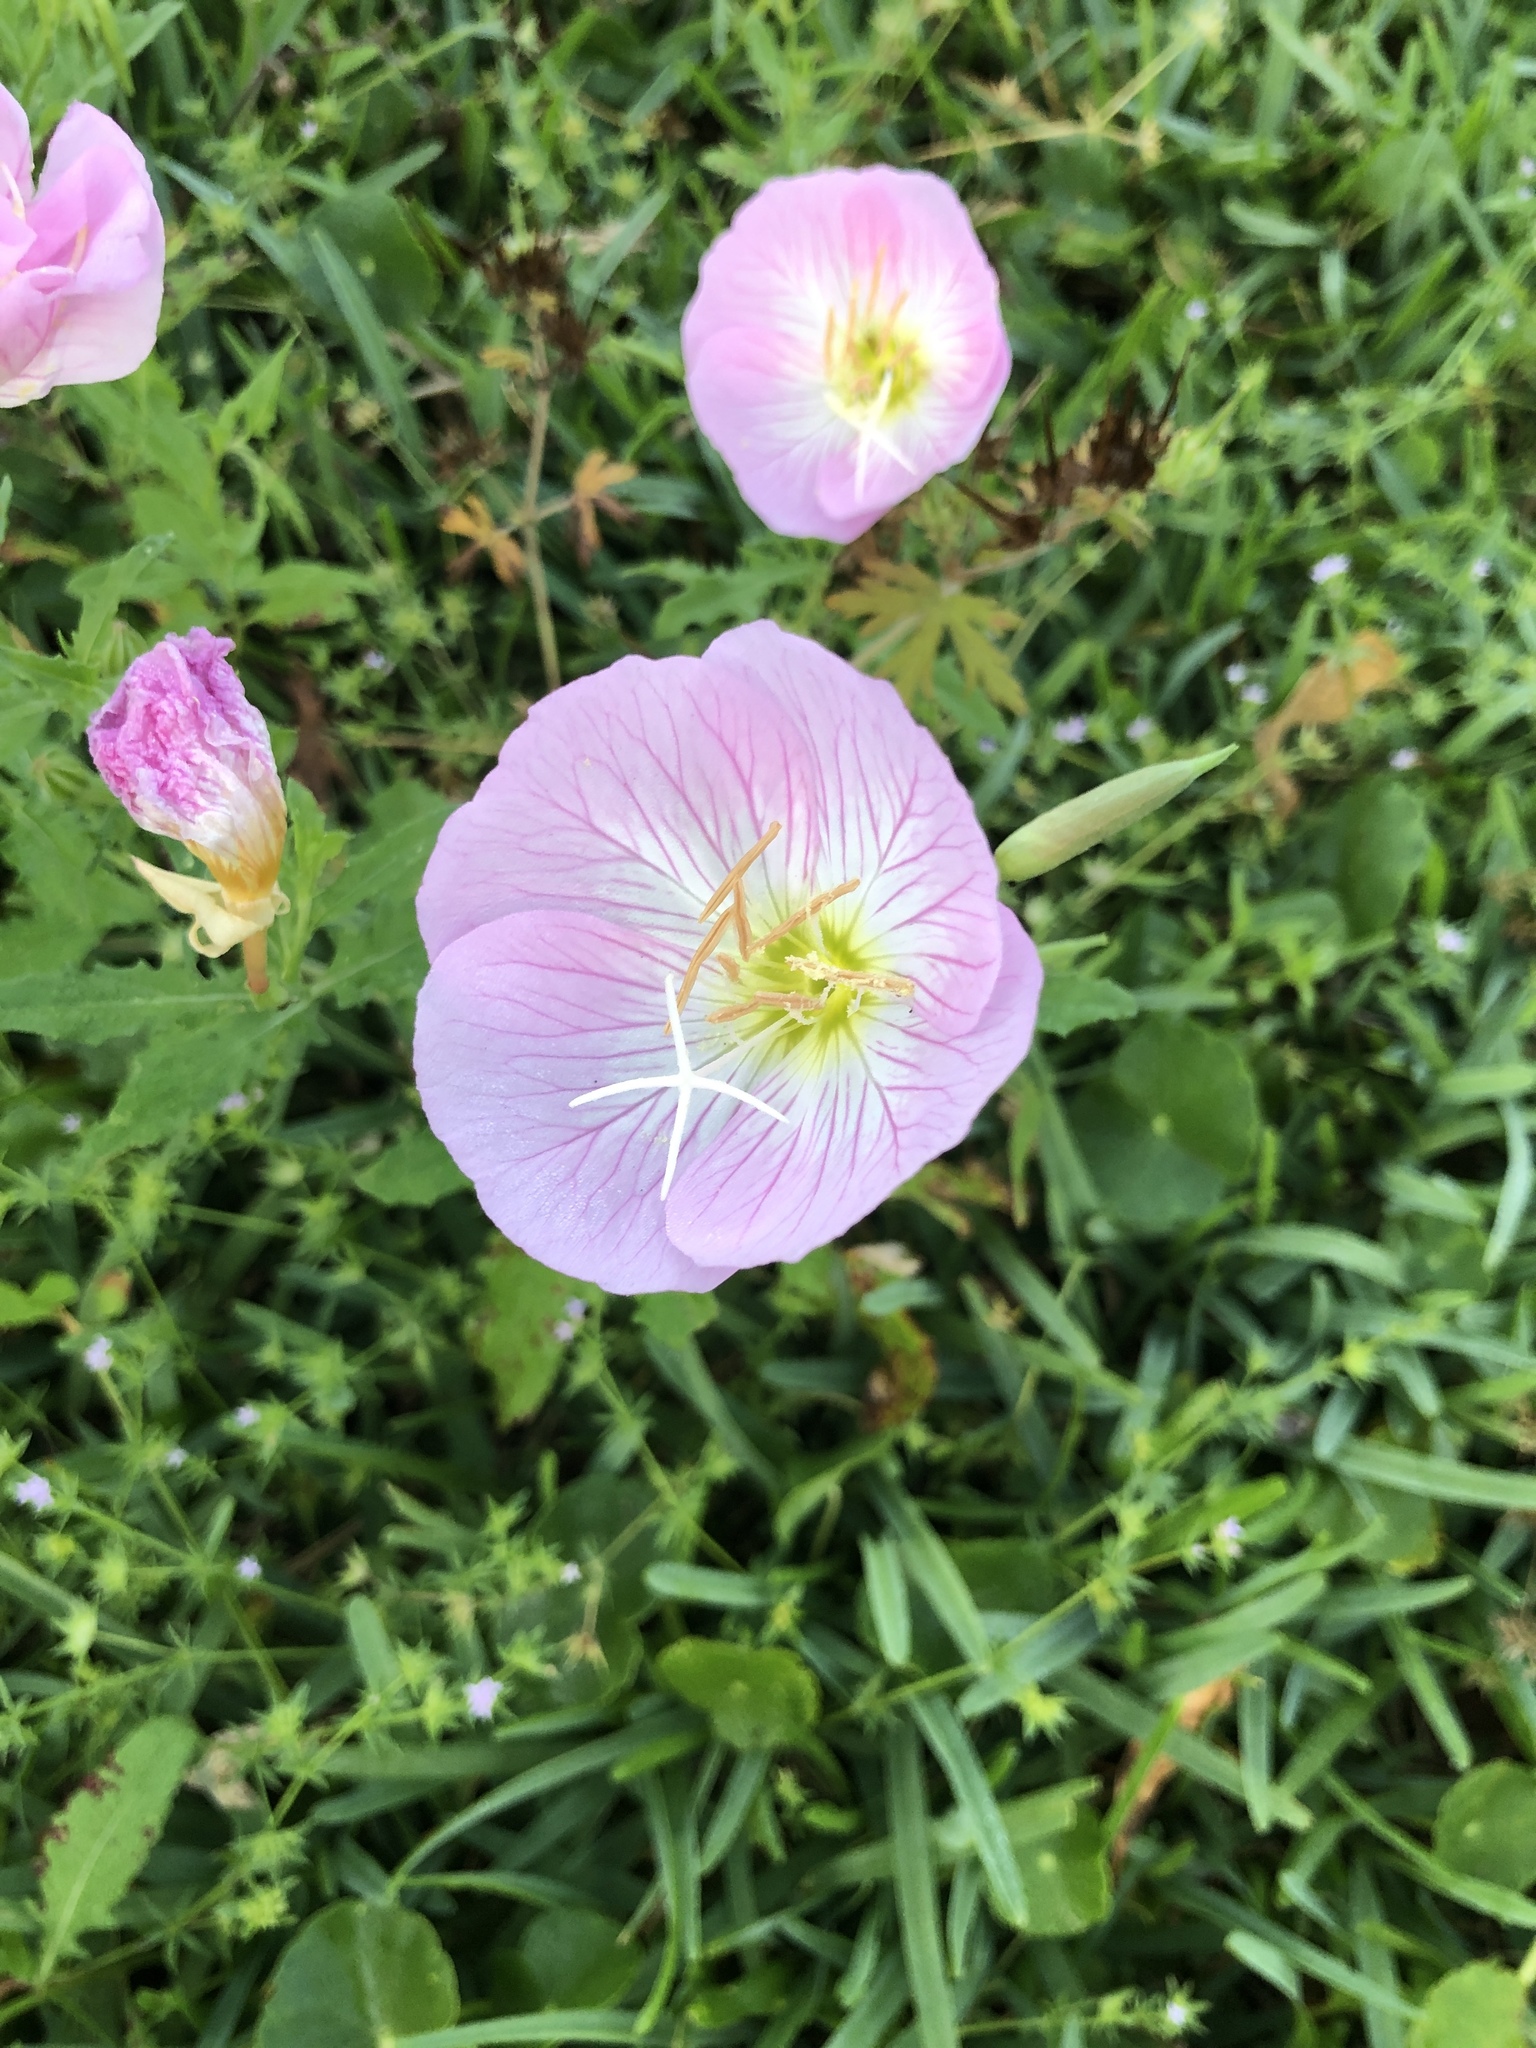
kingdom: Plantae
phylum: Tracheophyta
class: Magnoliopsida
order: Myrtales
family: Onagraceae
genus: Oenothera
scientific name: Oenothera speciosa
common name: White evening-primrose
